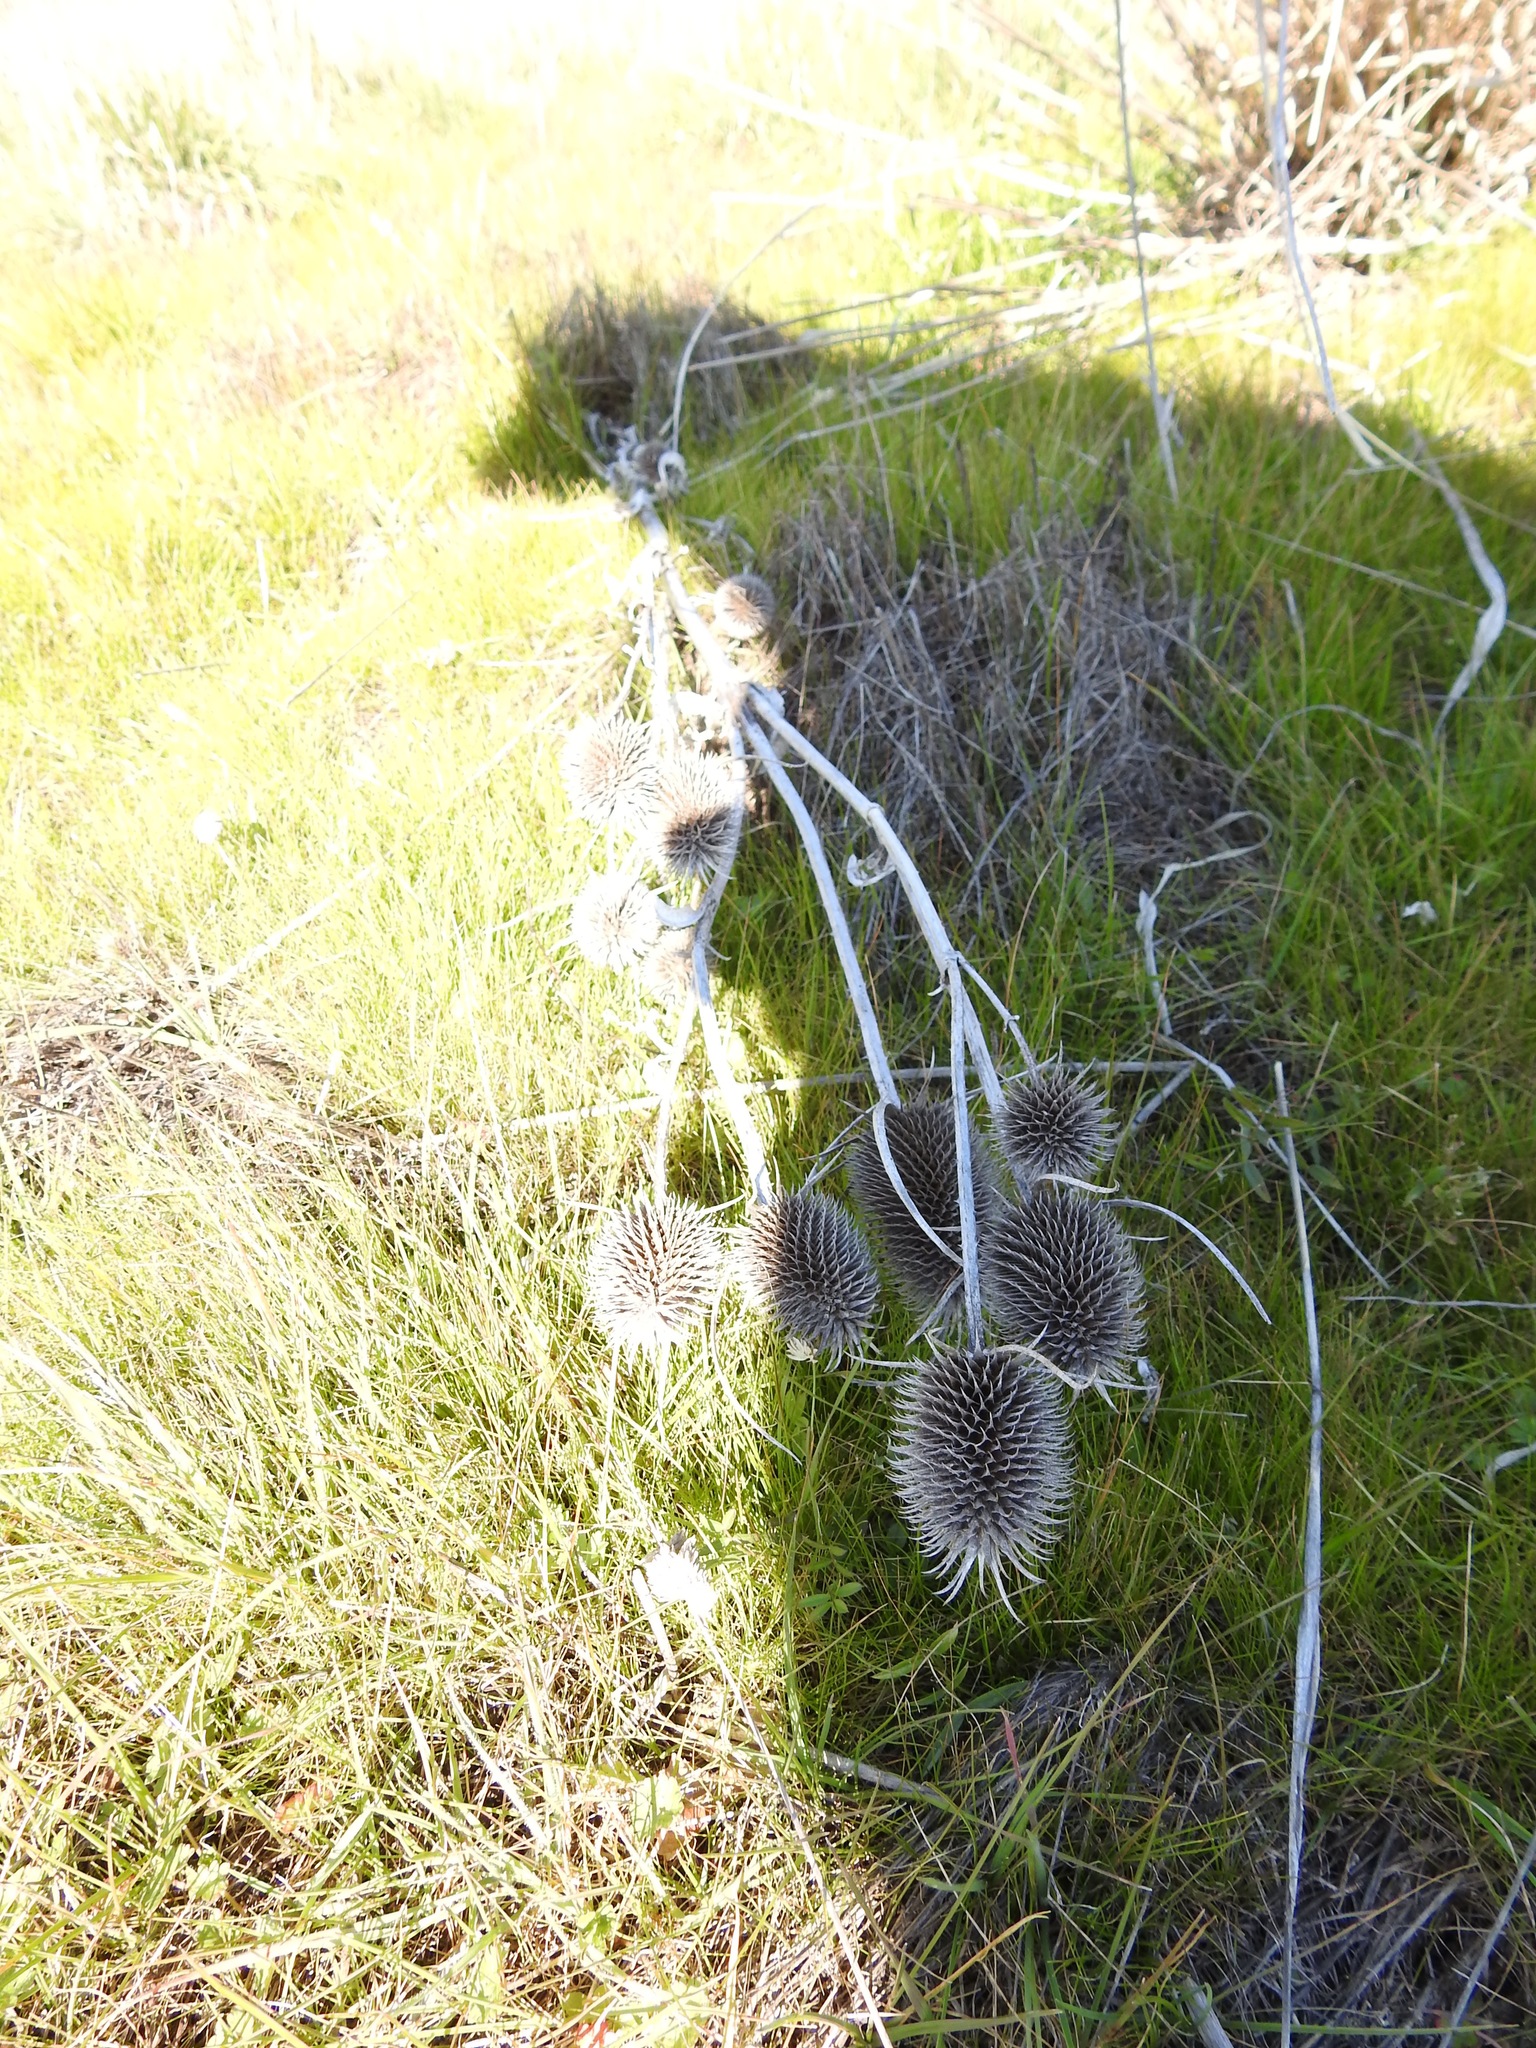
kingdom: Plantae
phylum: Tracheophyta
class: Magnoliopsida
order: Dipsacales
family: Caprifoliaceae
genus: Dipsacus
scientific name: Dipsacus sativus
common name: Fuller's teasel
